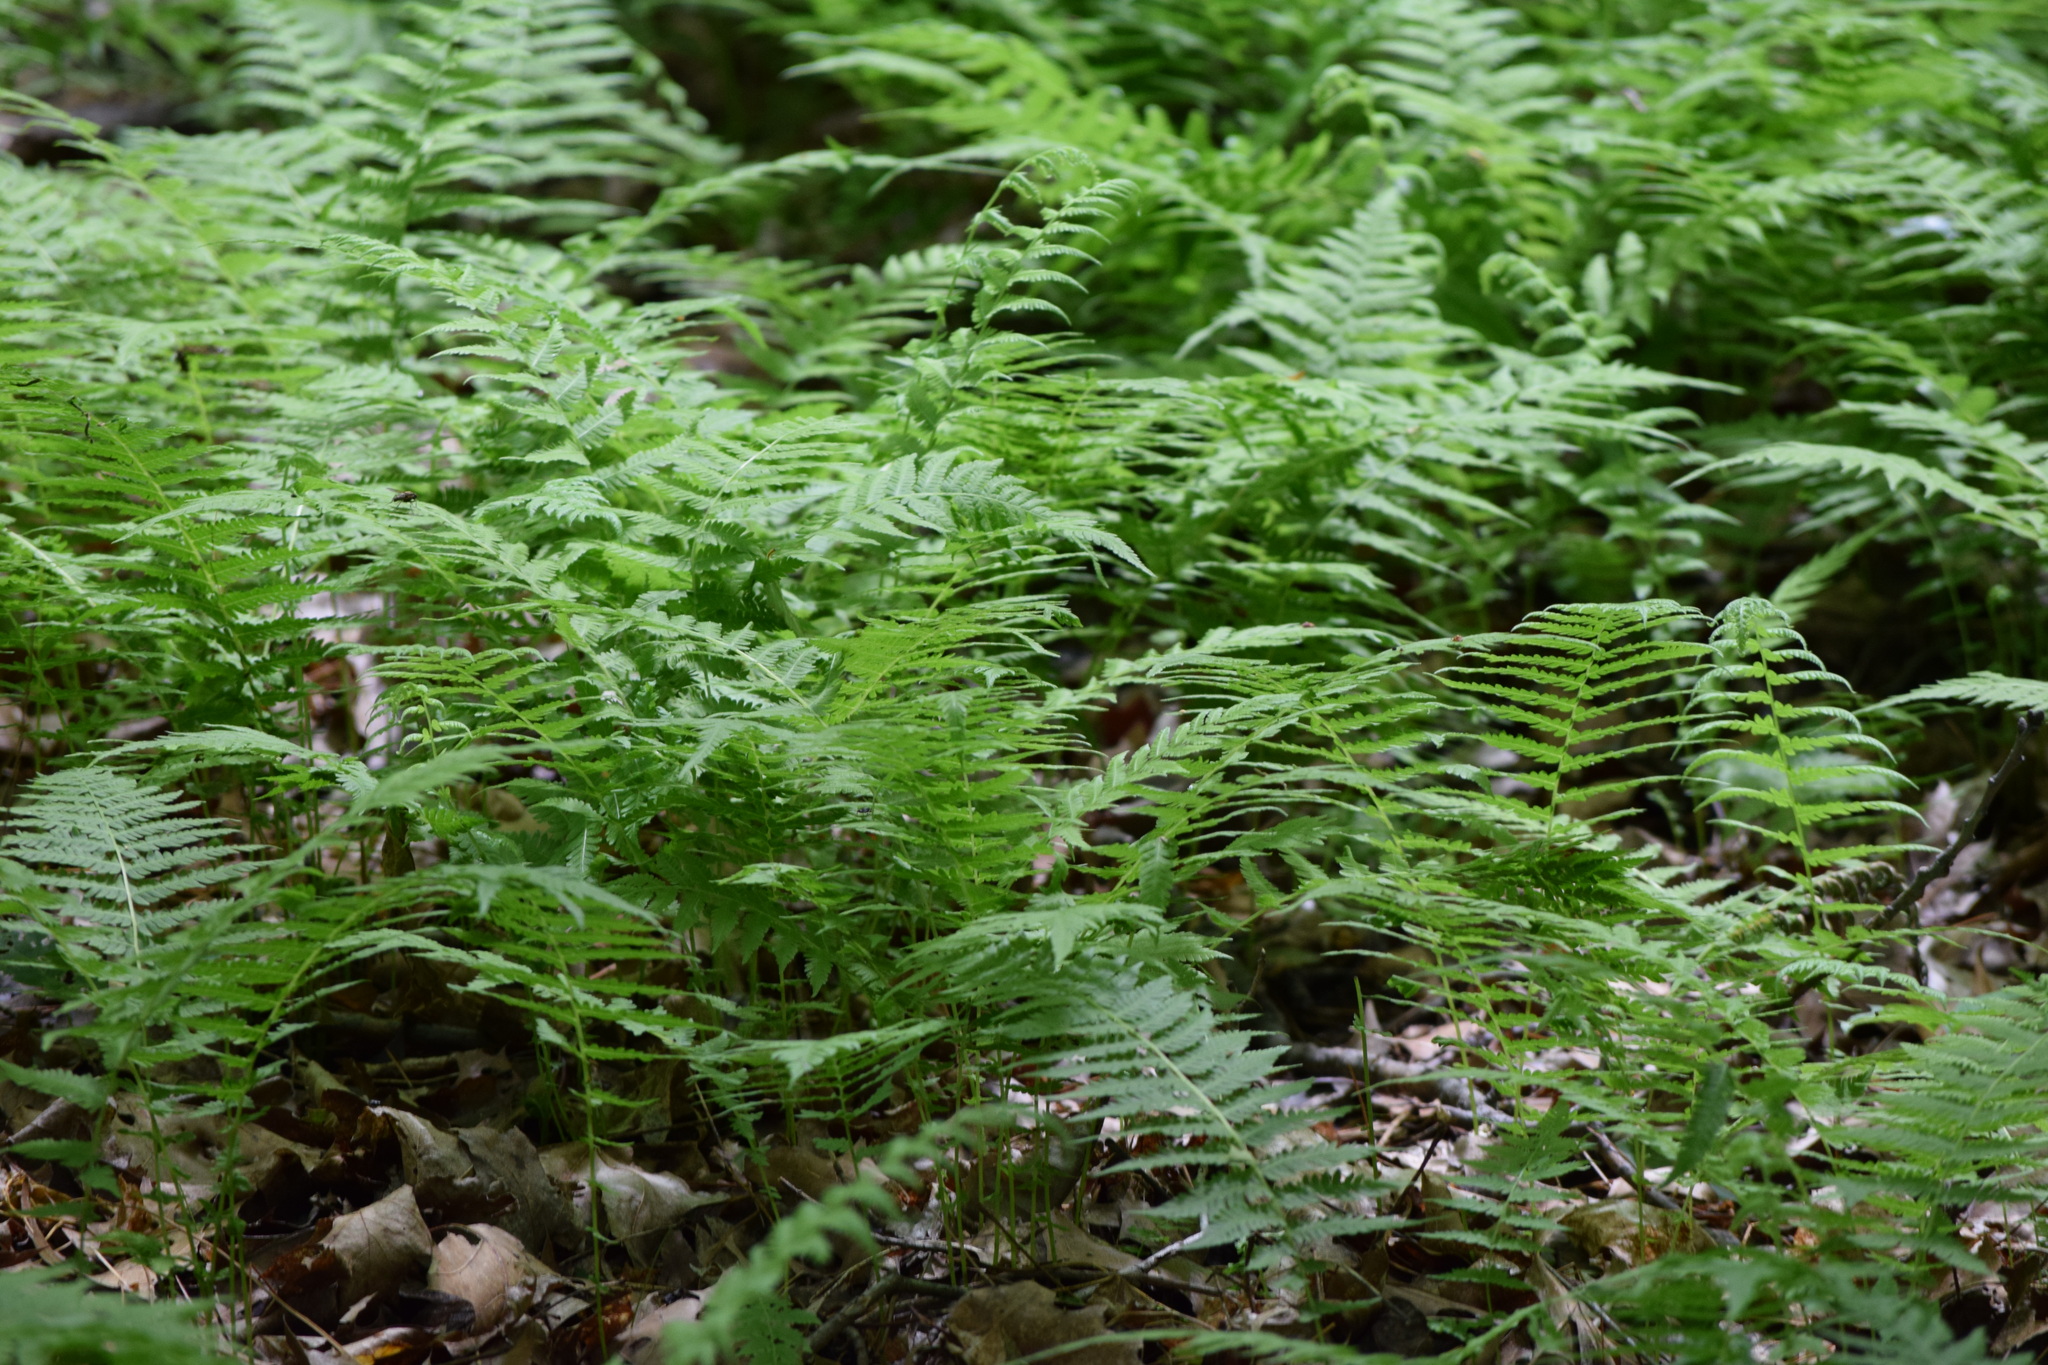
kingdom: Plantae
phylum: Tracheophyta
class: Polypodiopsida
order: Polypodiales
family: Thelypteridaceae
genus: Amauropelta
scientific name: Amauropelta noveboracensis
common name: New york fern
